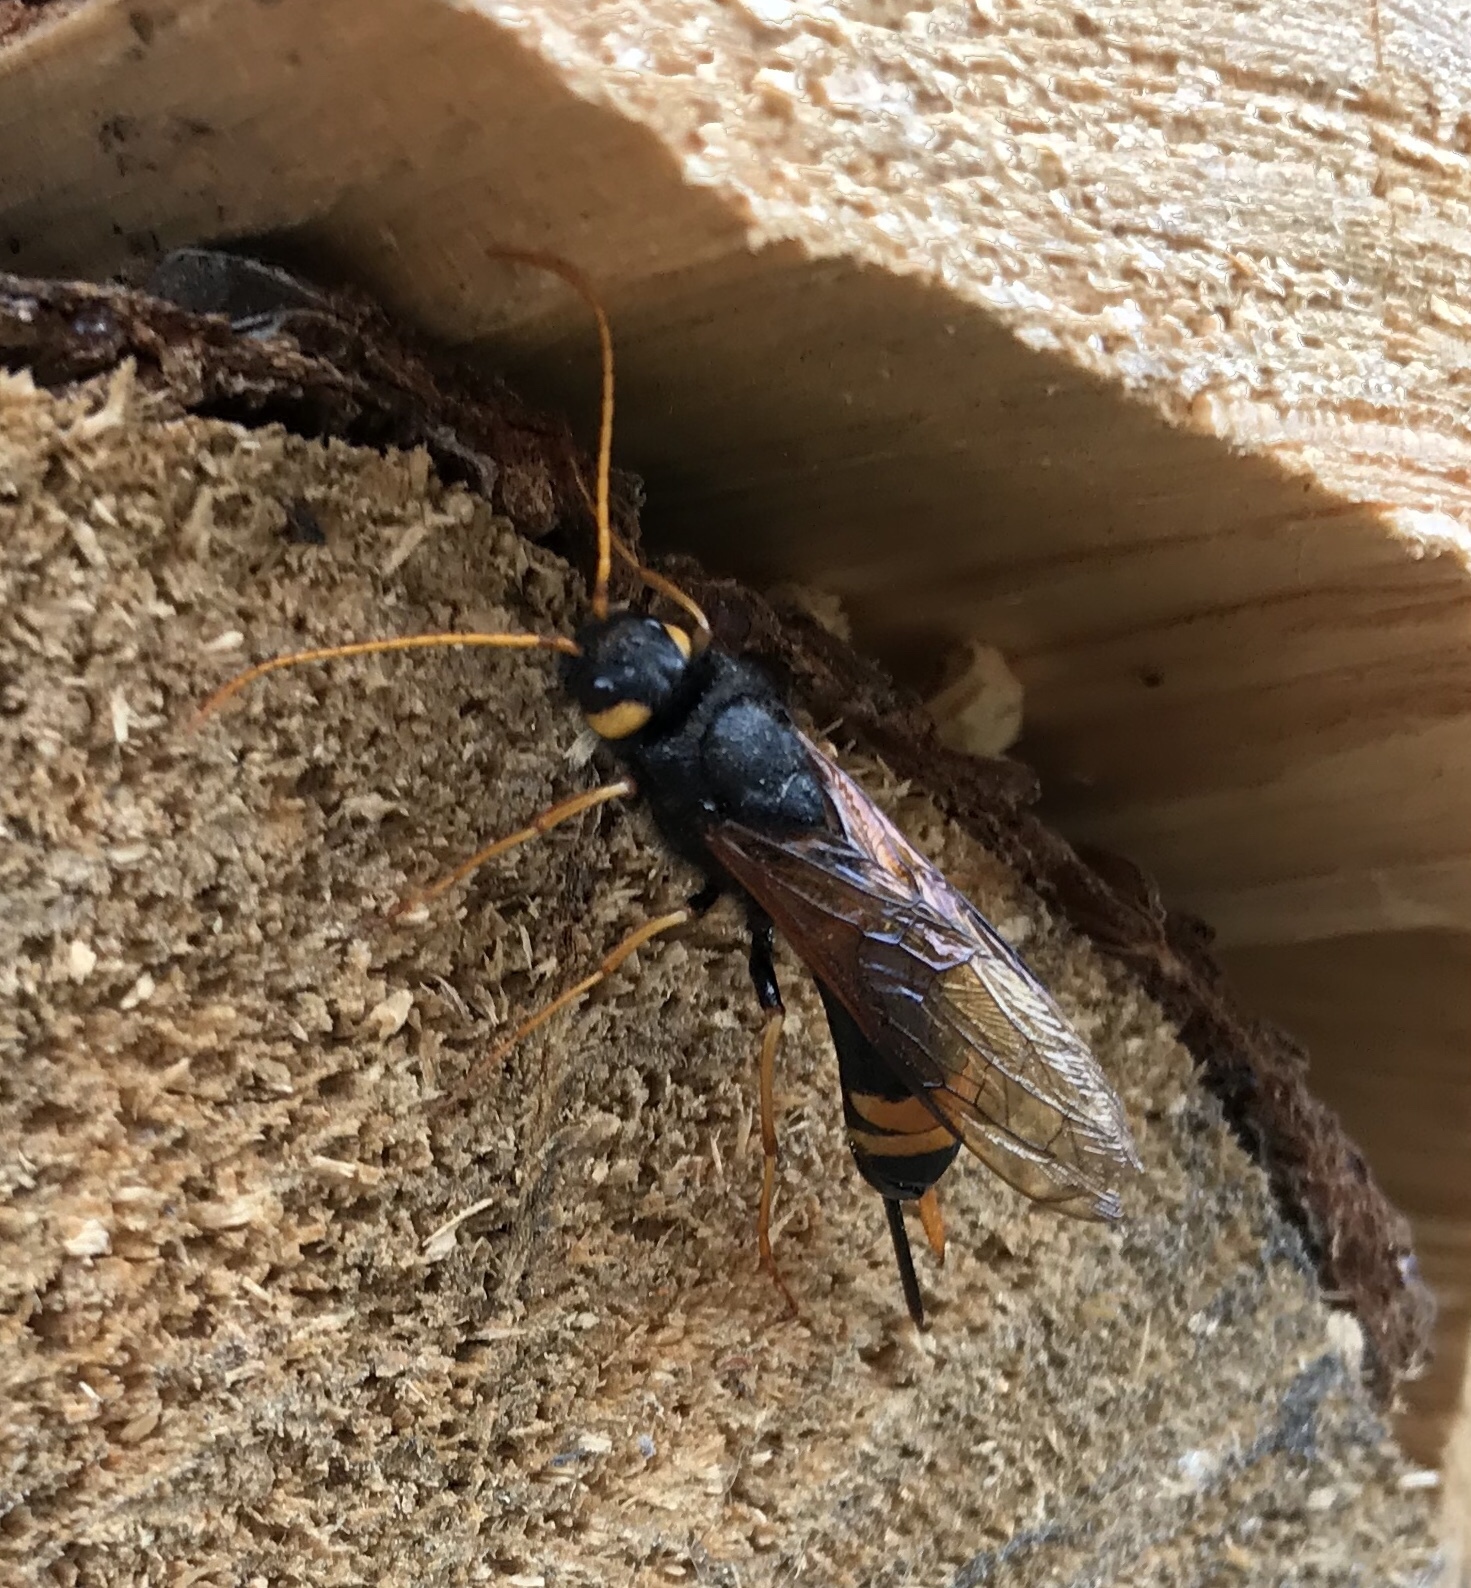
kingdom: Animalia
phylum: Arthropoda
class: Insecta
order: Hymenoptera
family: Siricidae
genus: Urocerus
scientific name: Urocerus flavicornis
